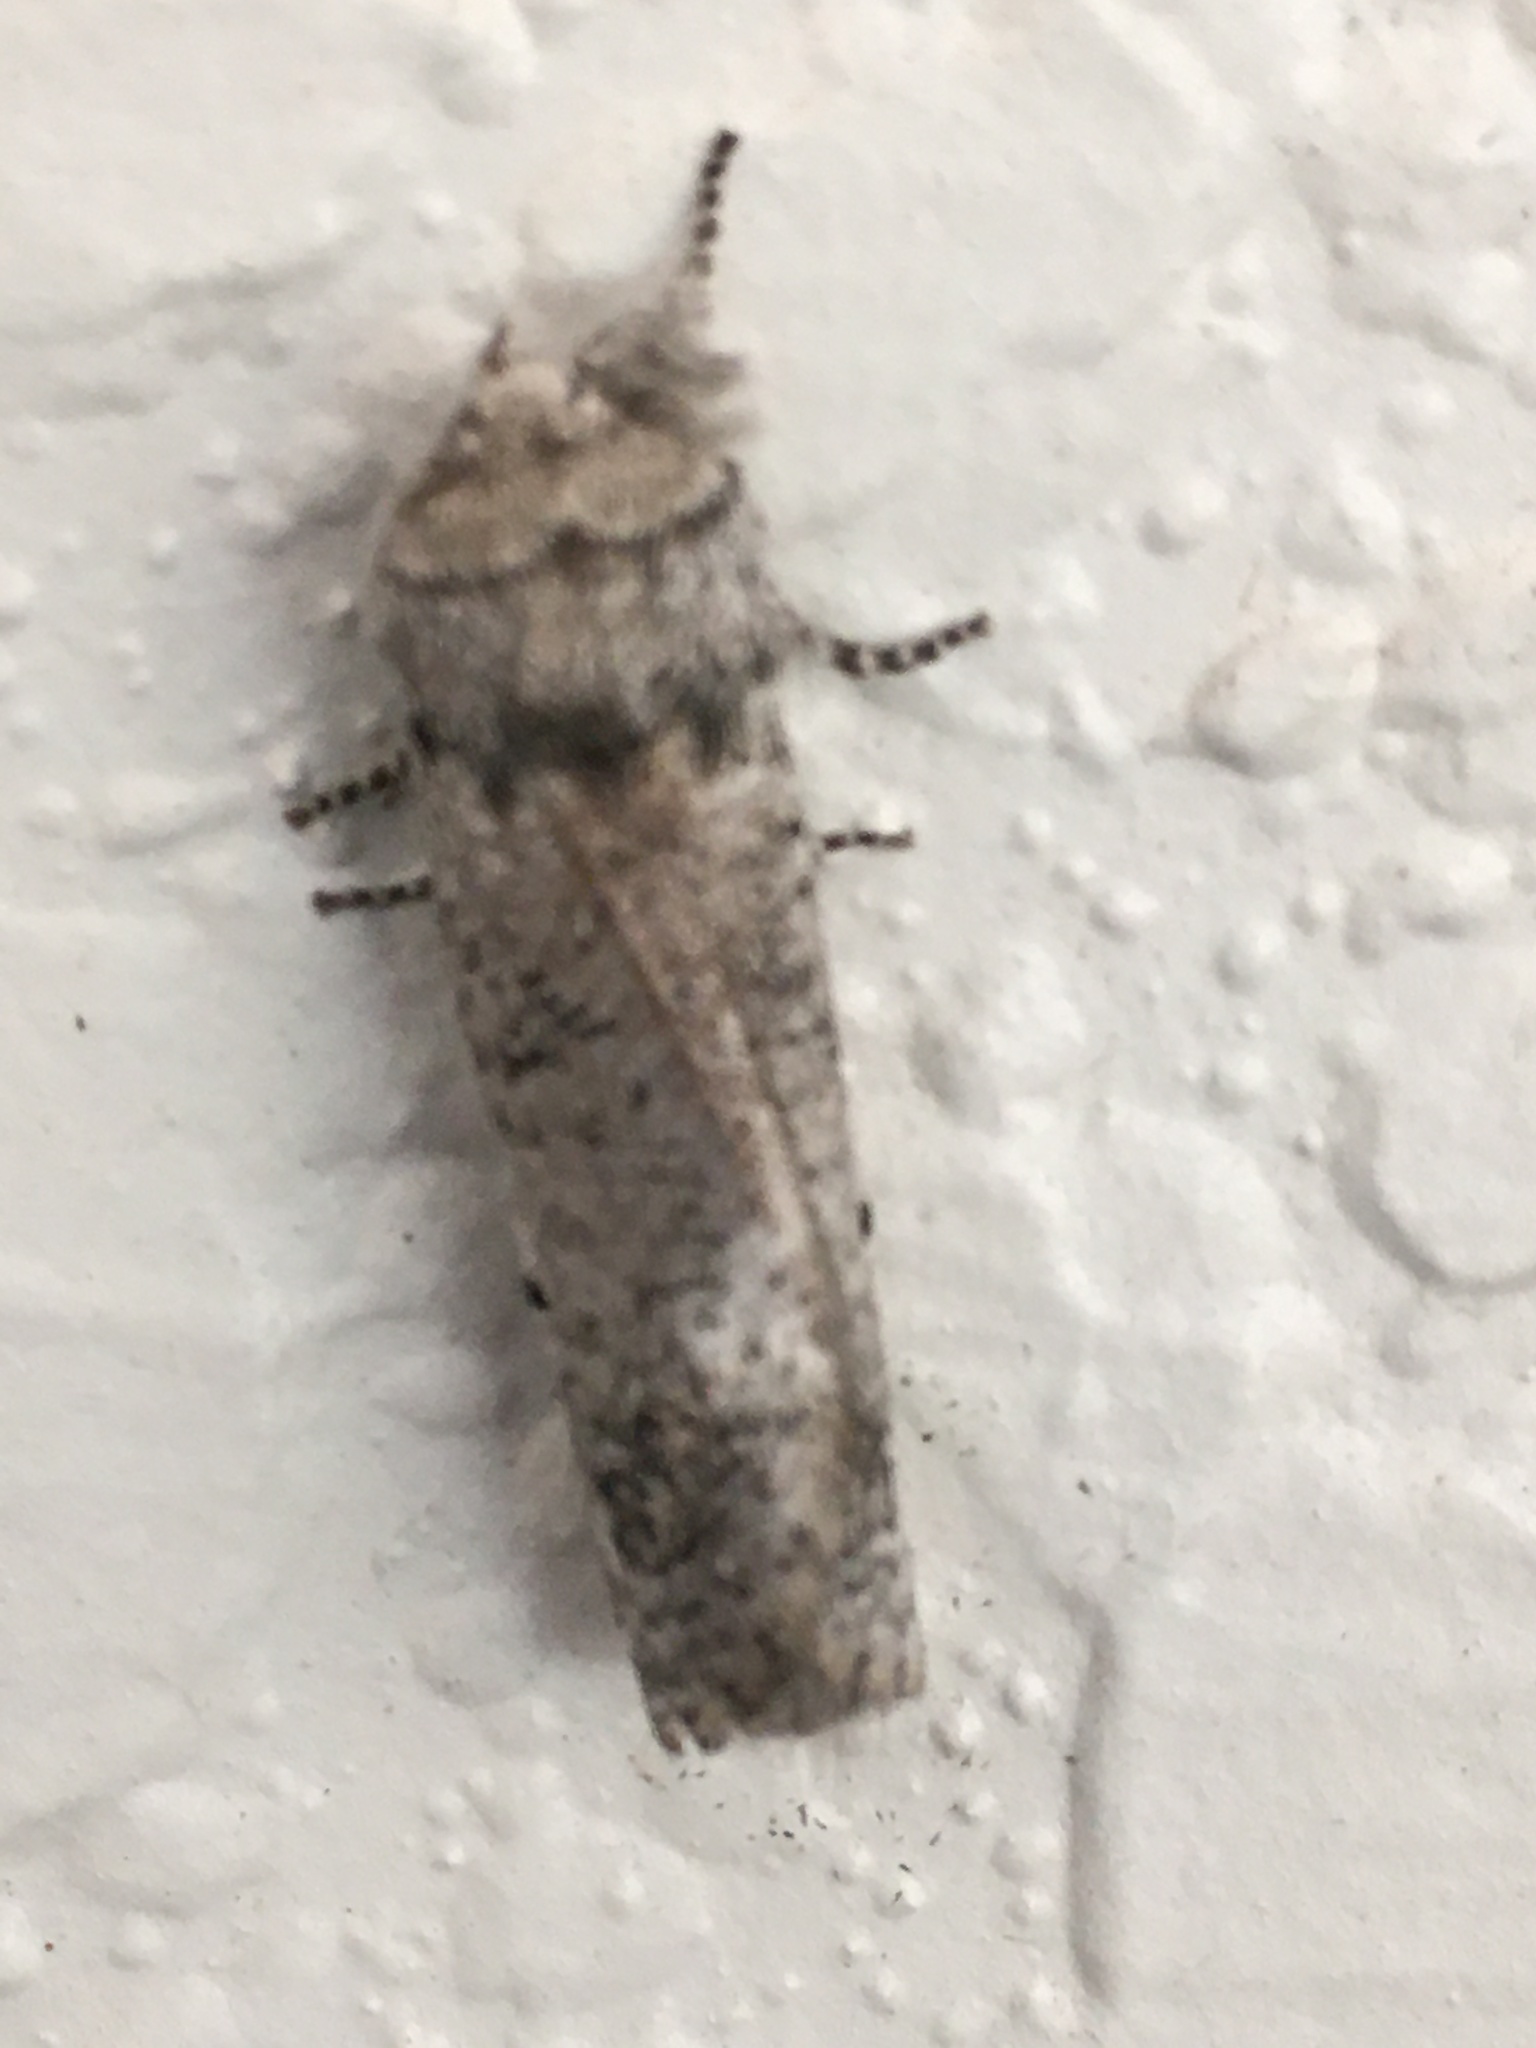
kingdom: Animalia
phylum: Arthropoda
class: Insecta
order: Lepidoptera
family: Erebidae
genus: Aon
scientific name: Aon noctuiformis
